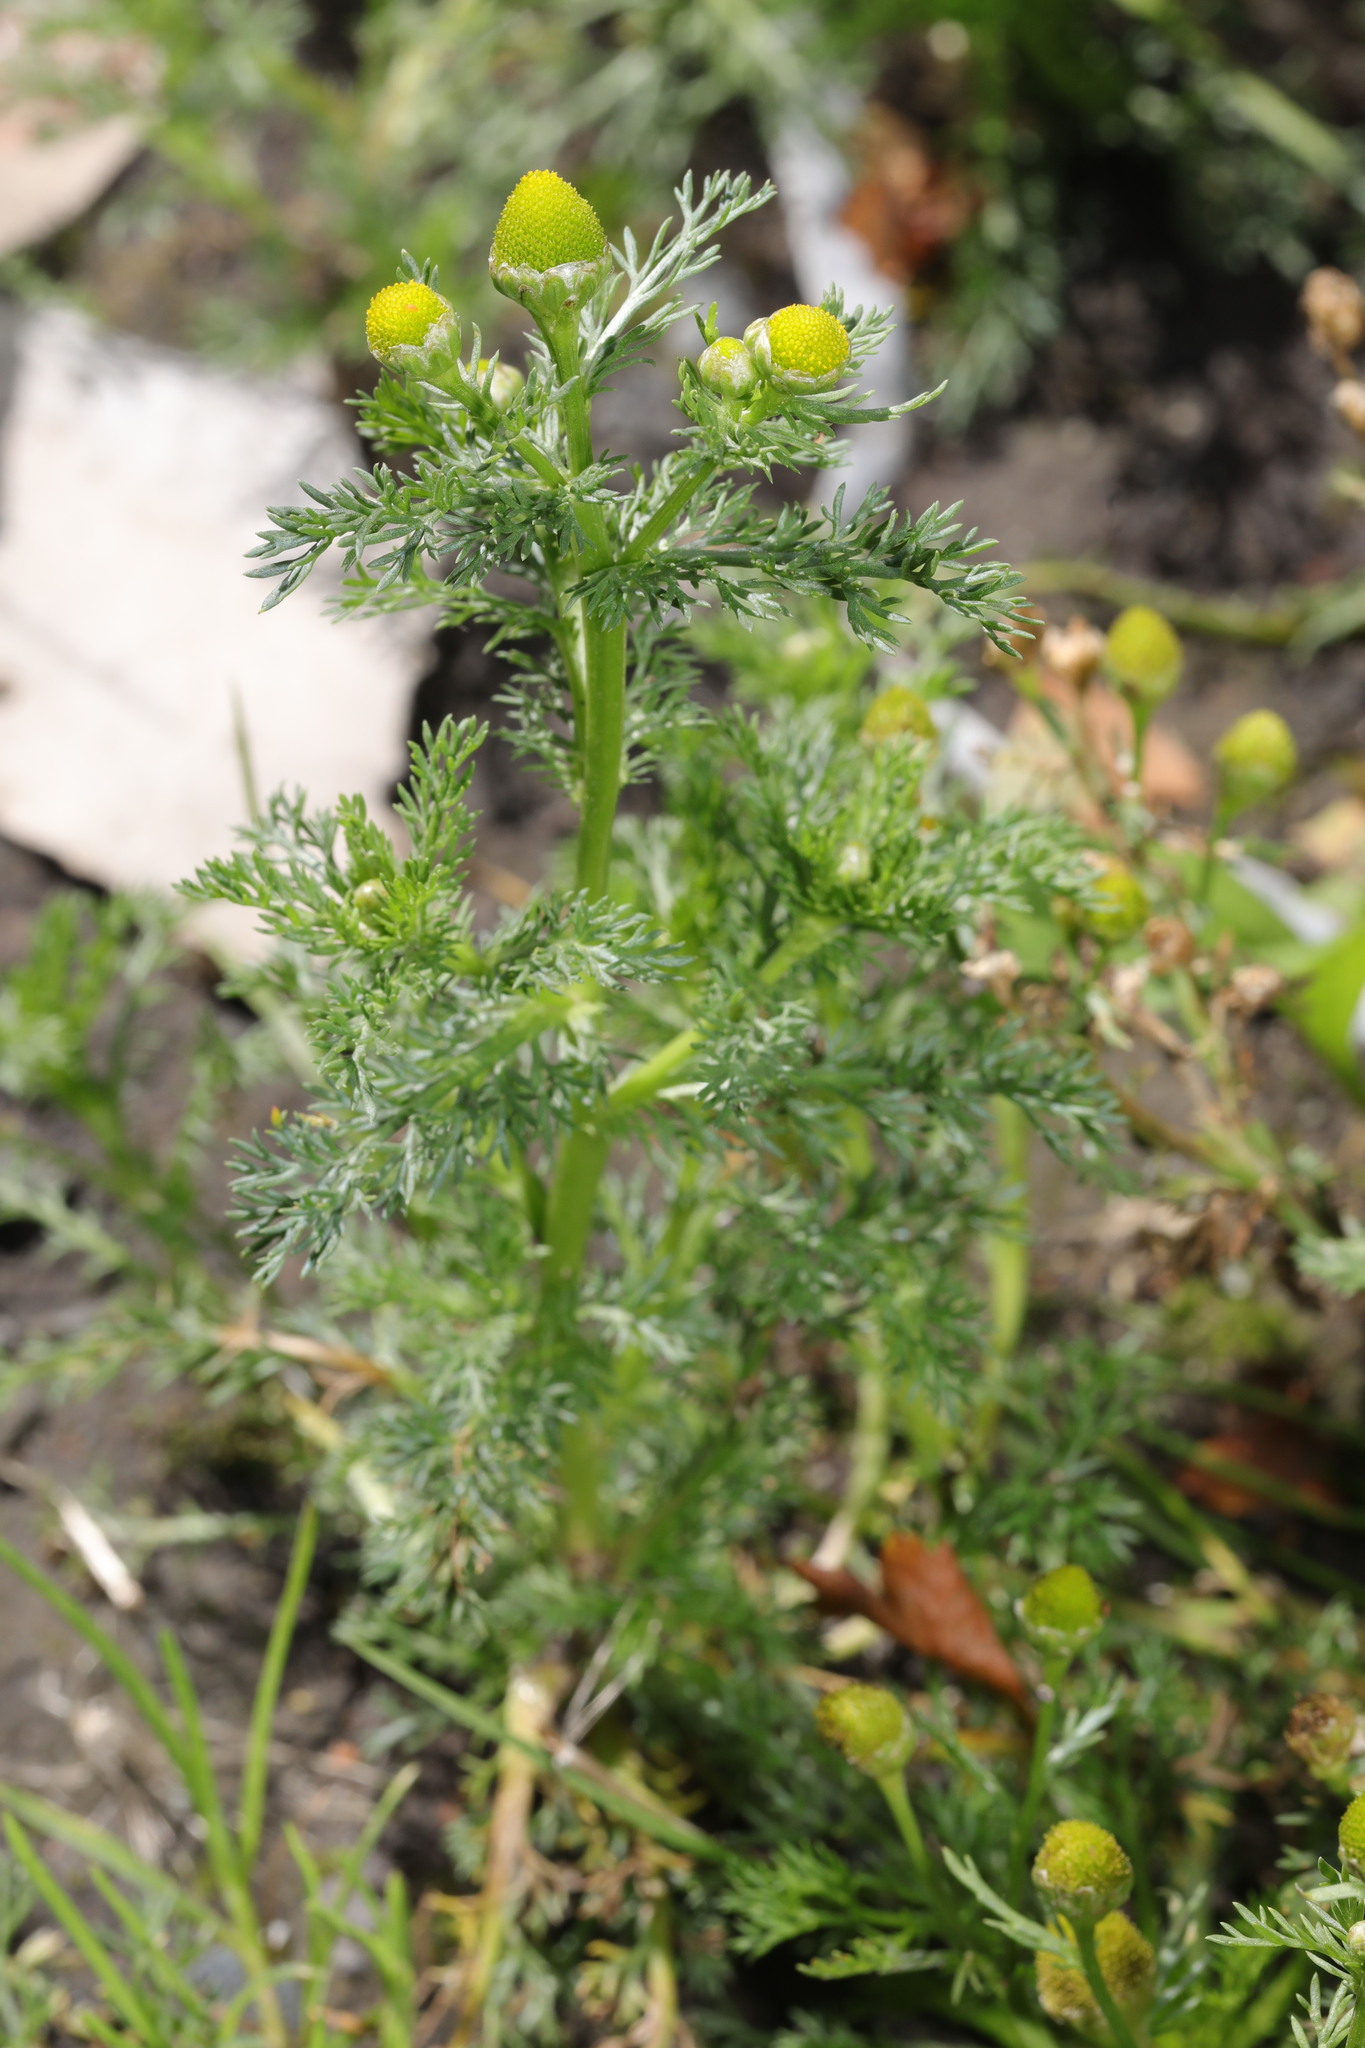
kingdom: Plantae
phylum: Tracheophyta
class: Magnoliopsida
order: Asterales
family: Asteraceae
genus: Matricaria
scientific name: Matricaria discoidea
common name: Disc mayweed
